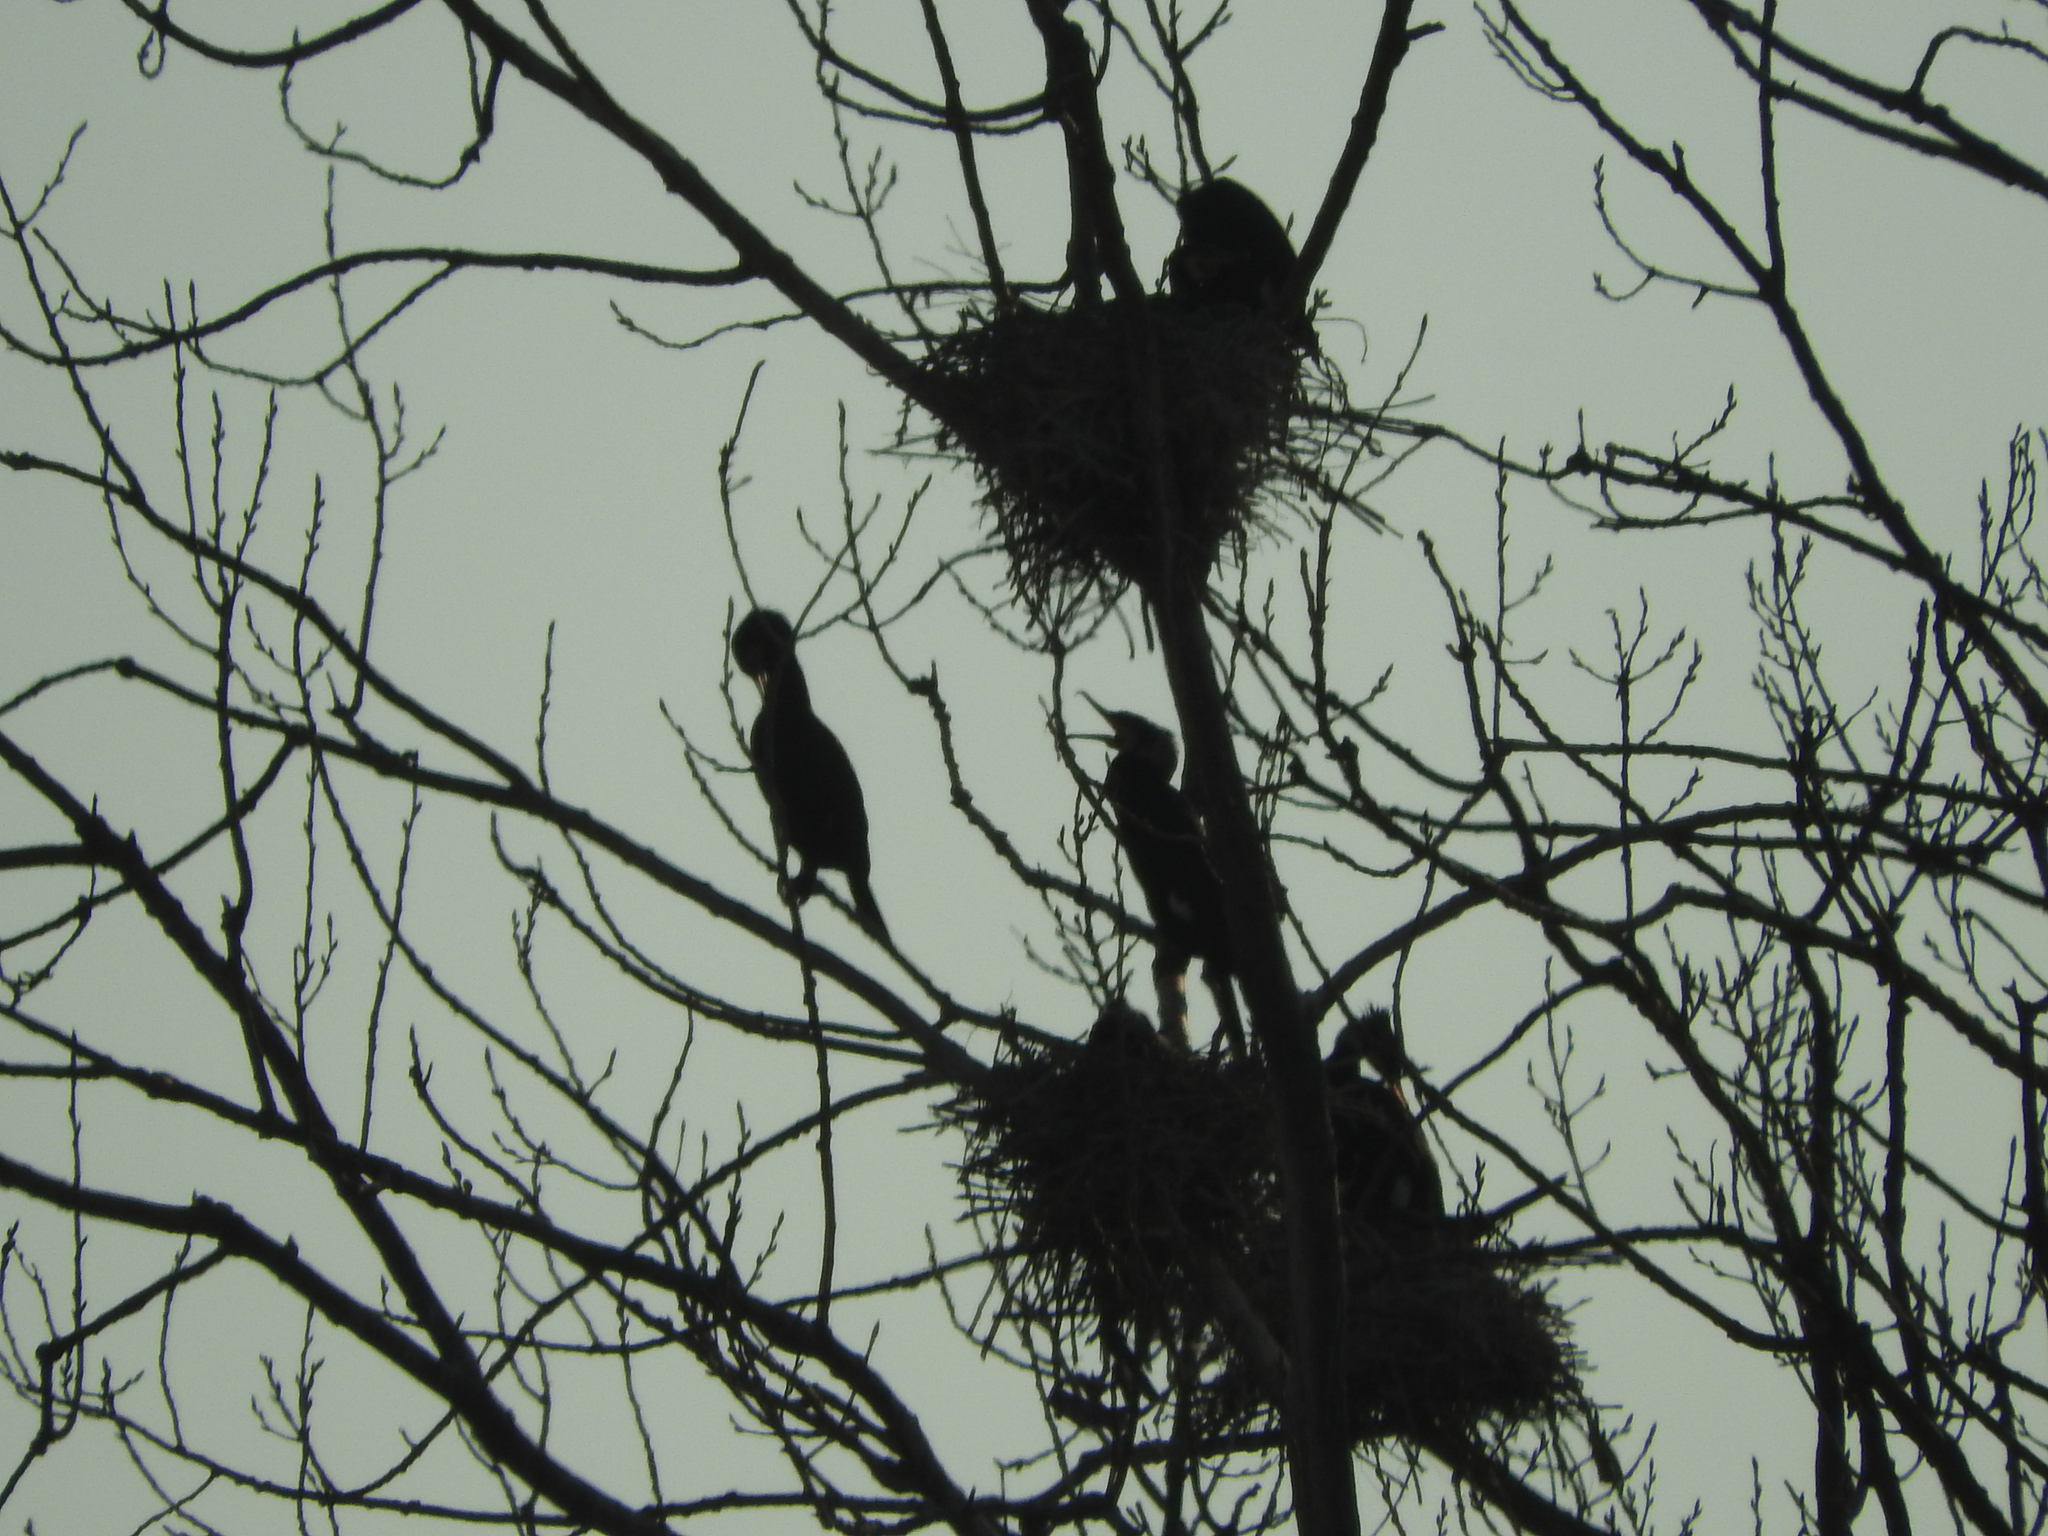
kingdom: Animalia
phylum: Chordata
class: Aves
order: Suliformes
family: Phalacrocoracidae
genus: Phalacrocorax
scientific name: Phalacrocorax carbo
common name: Great cormorant
